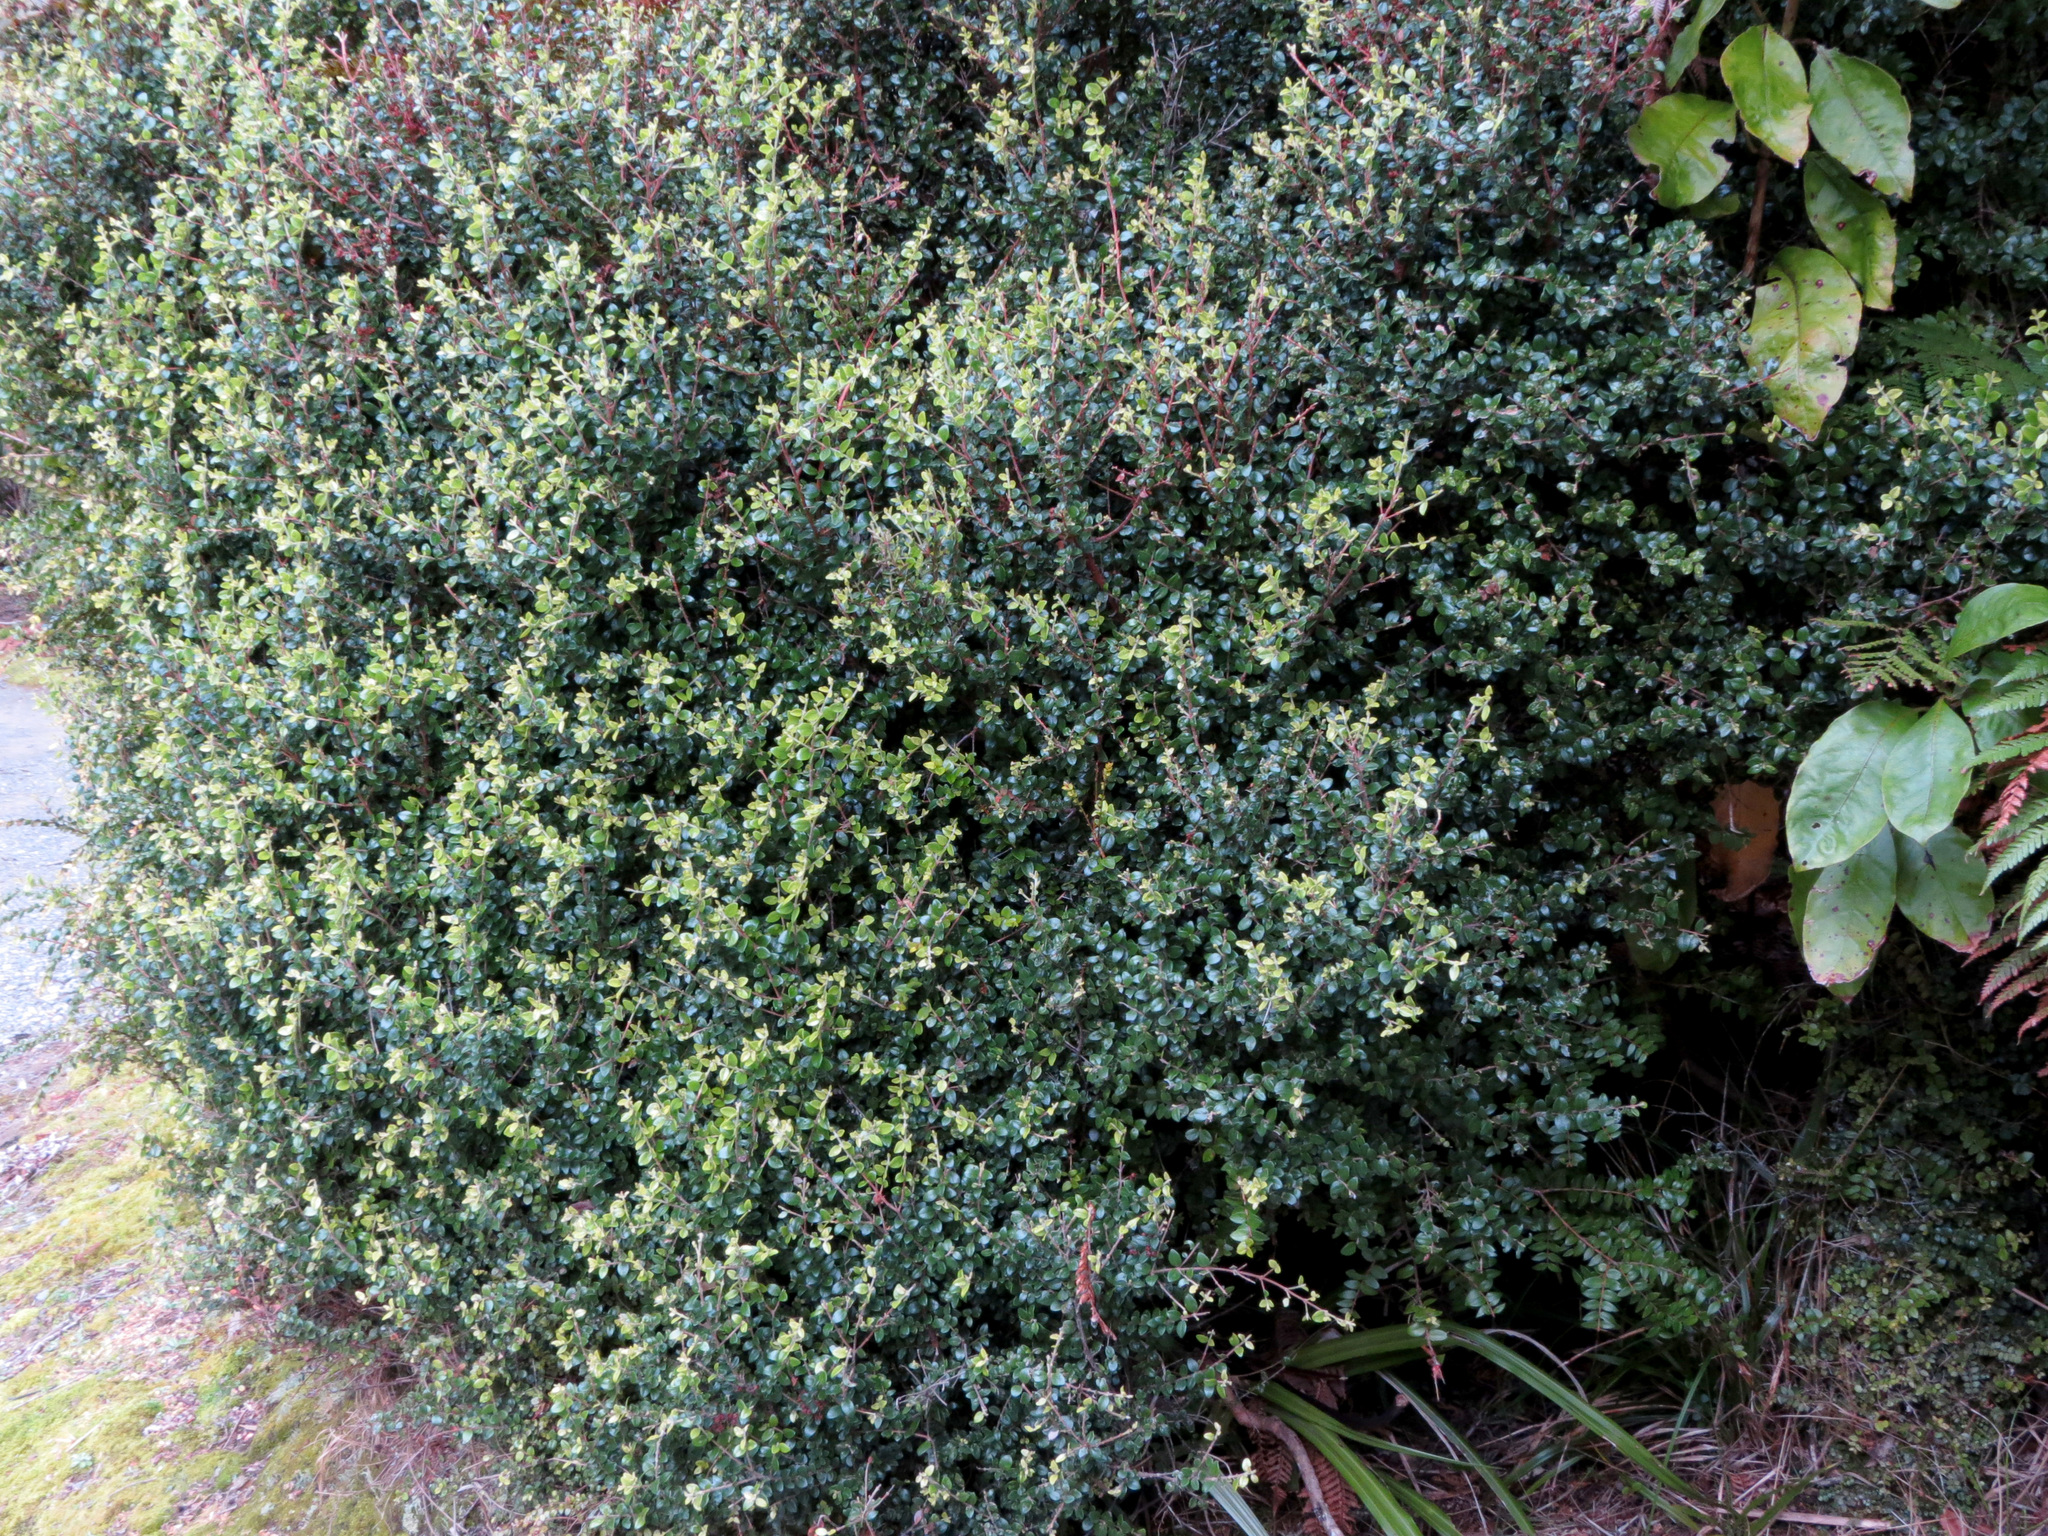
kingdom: Plantae
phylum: Tracheophyta
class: Magnoliopsida
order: Myrtales
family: Myrtaceae
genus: Metrosideros
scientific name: Metrosideros perforata
